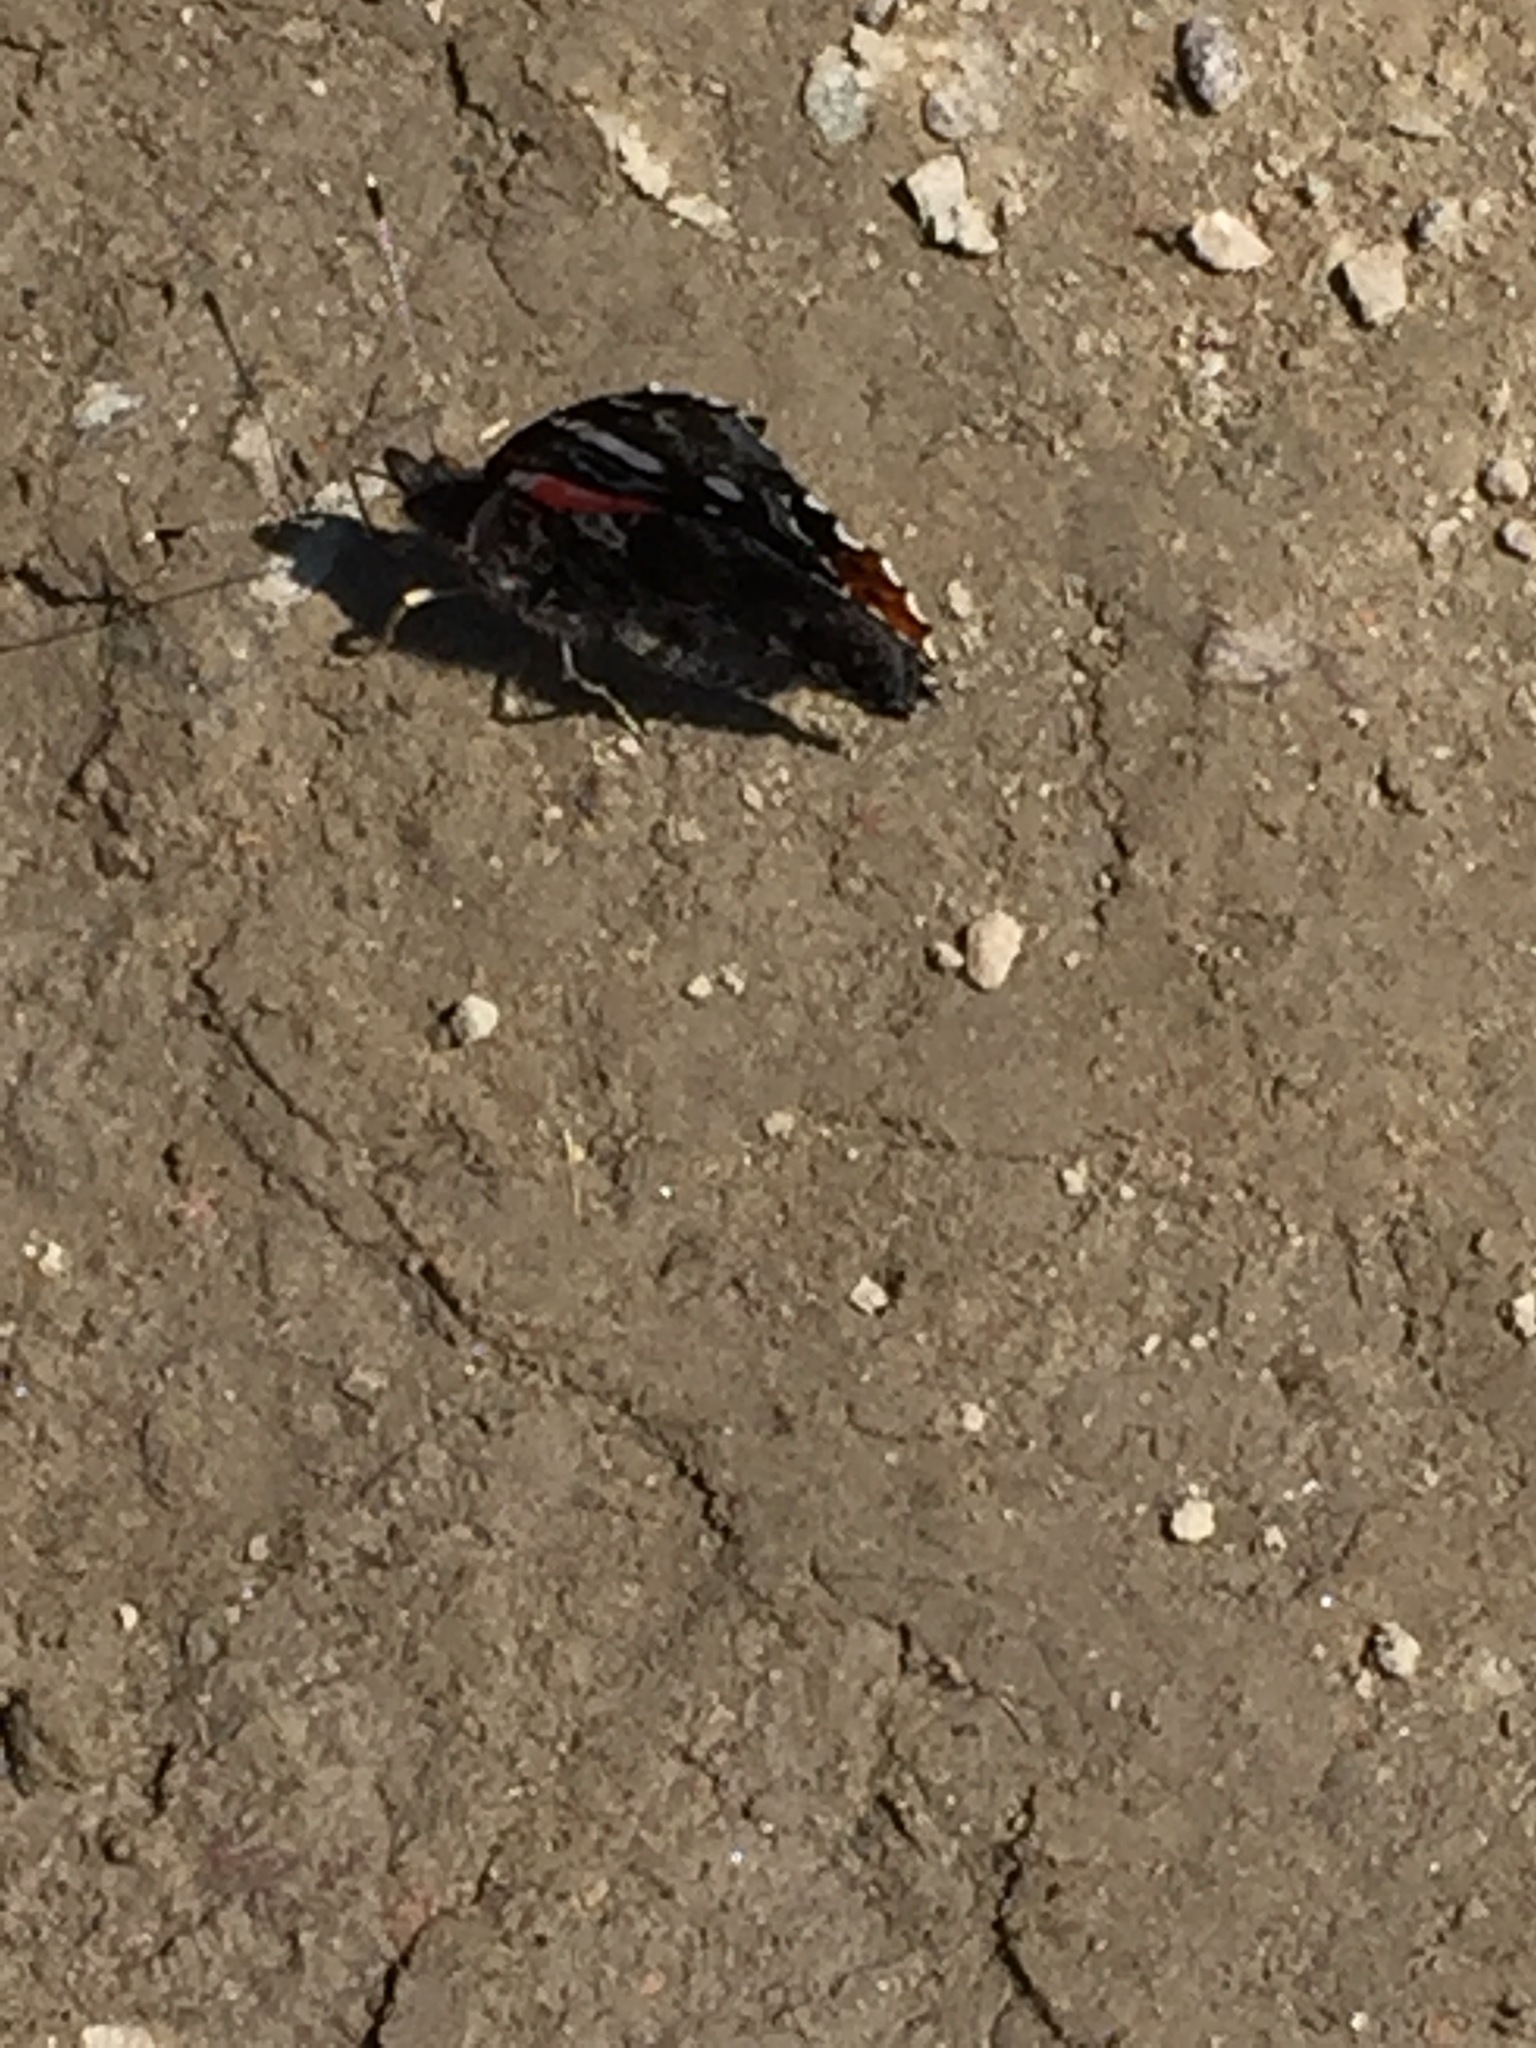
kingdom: Animalia
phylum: Arthropoda
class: Insecta
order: Lepidoptera
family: Nymphalidae
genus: Vanessa
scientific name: Vanessa atalanta
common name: Red admiral
